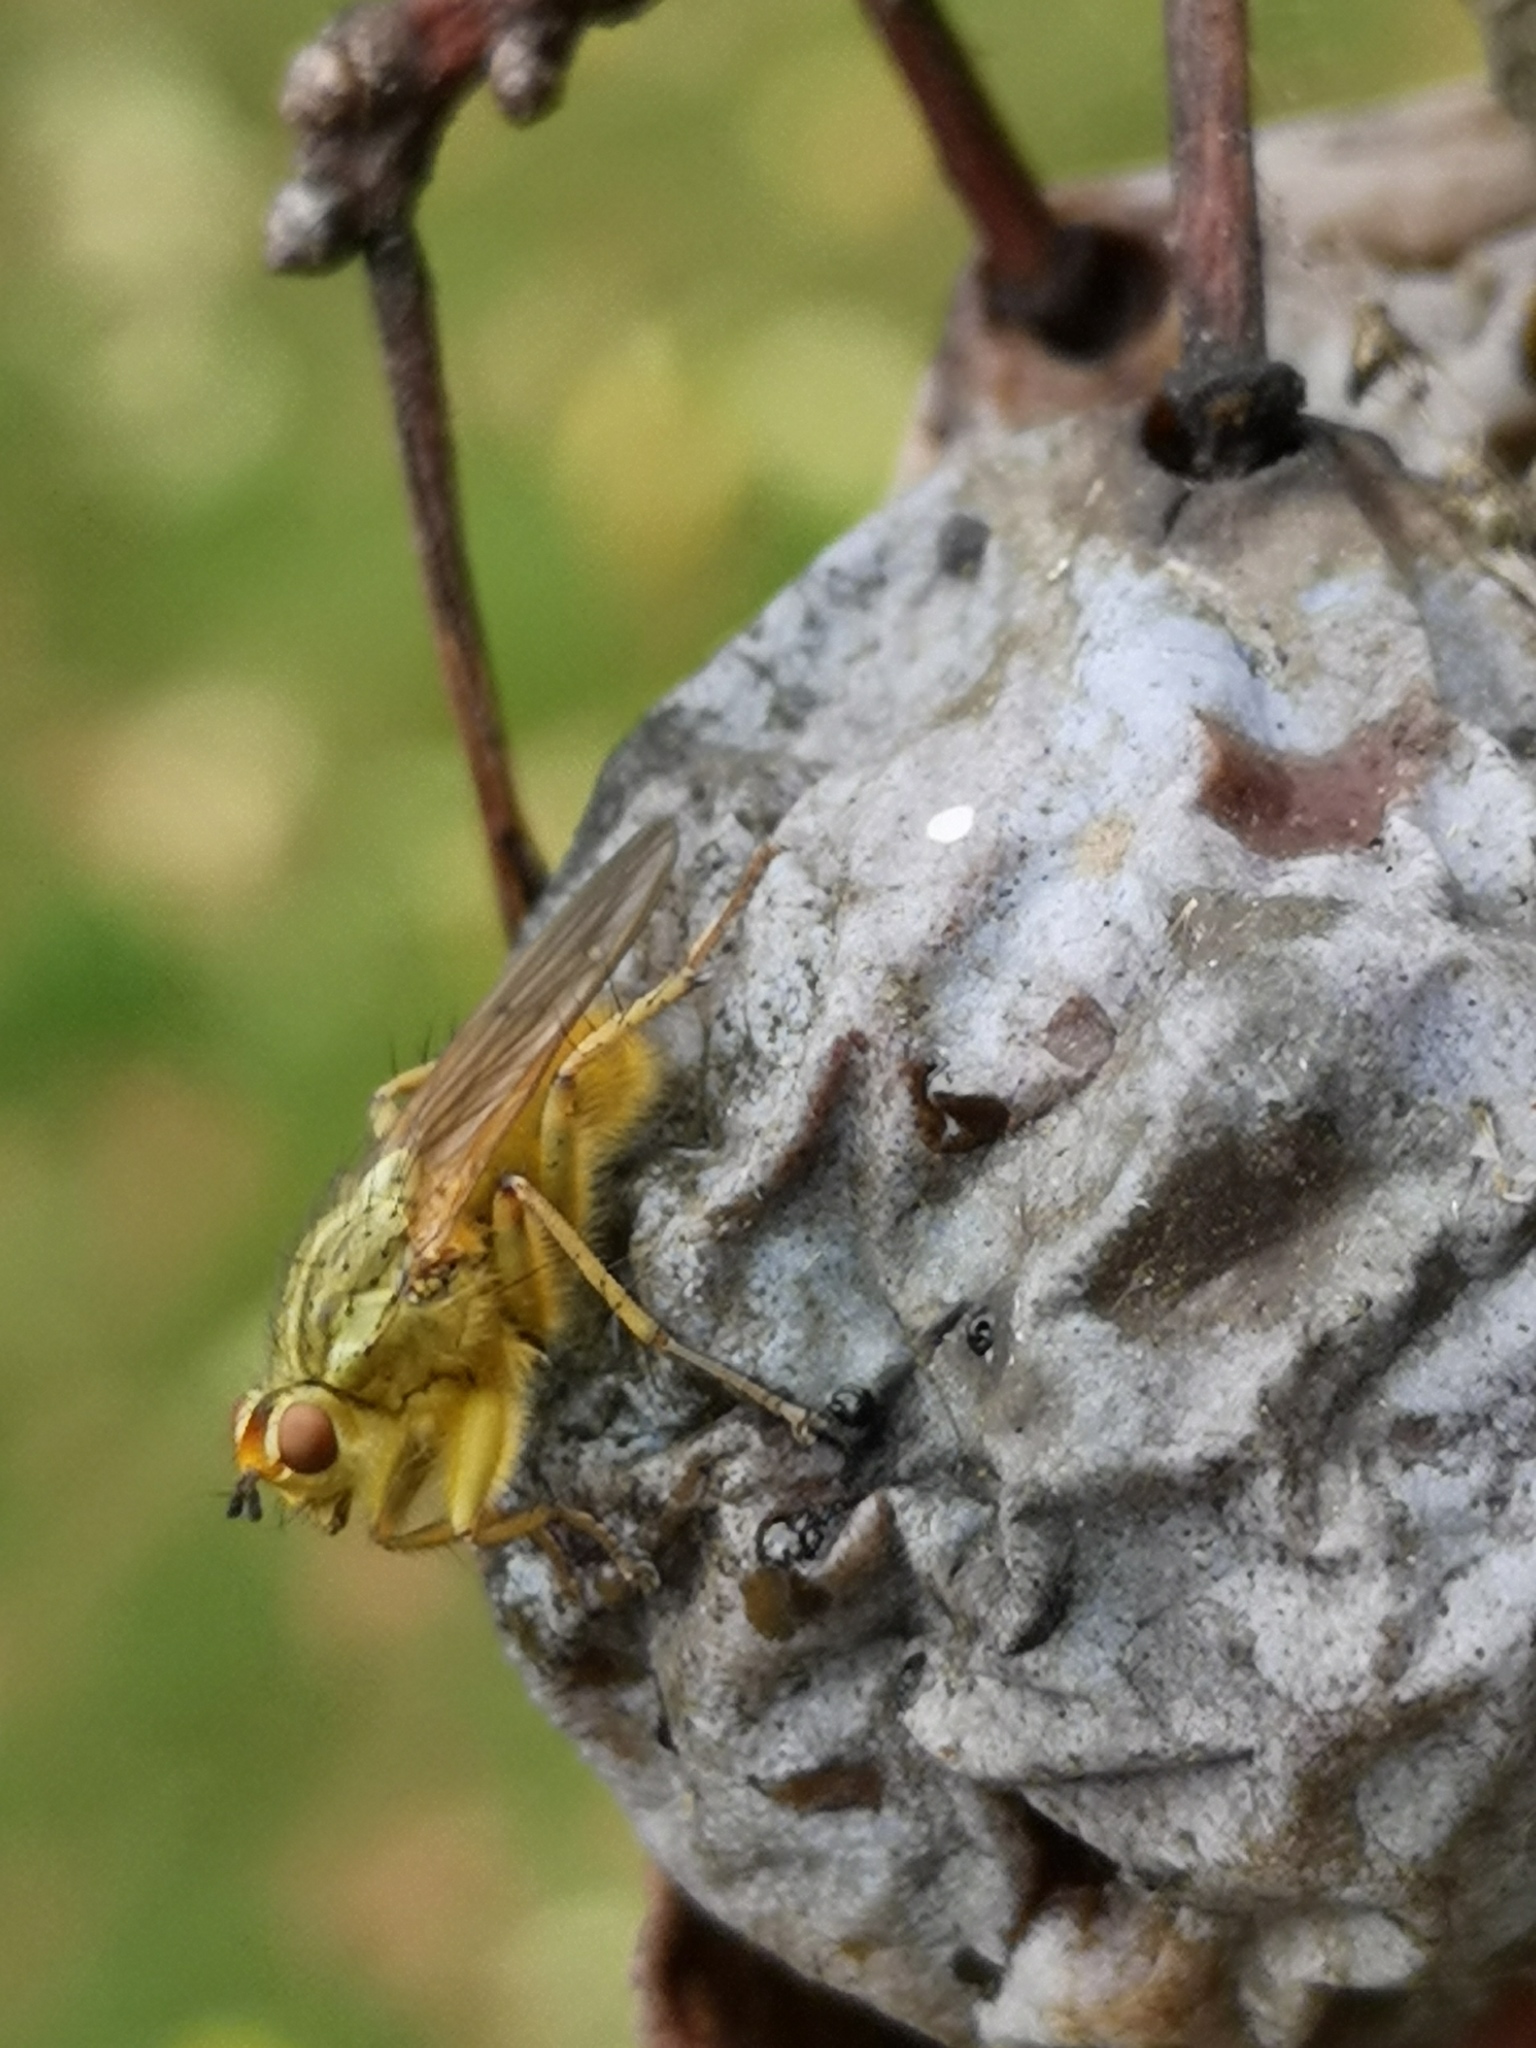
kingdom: Animalia
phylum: Arthropoda
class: Insecta
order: Diptera
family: Scathophagidae
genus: Scathophaga
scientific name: Scathophaga stercoraria
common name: Yellow dung fly
